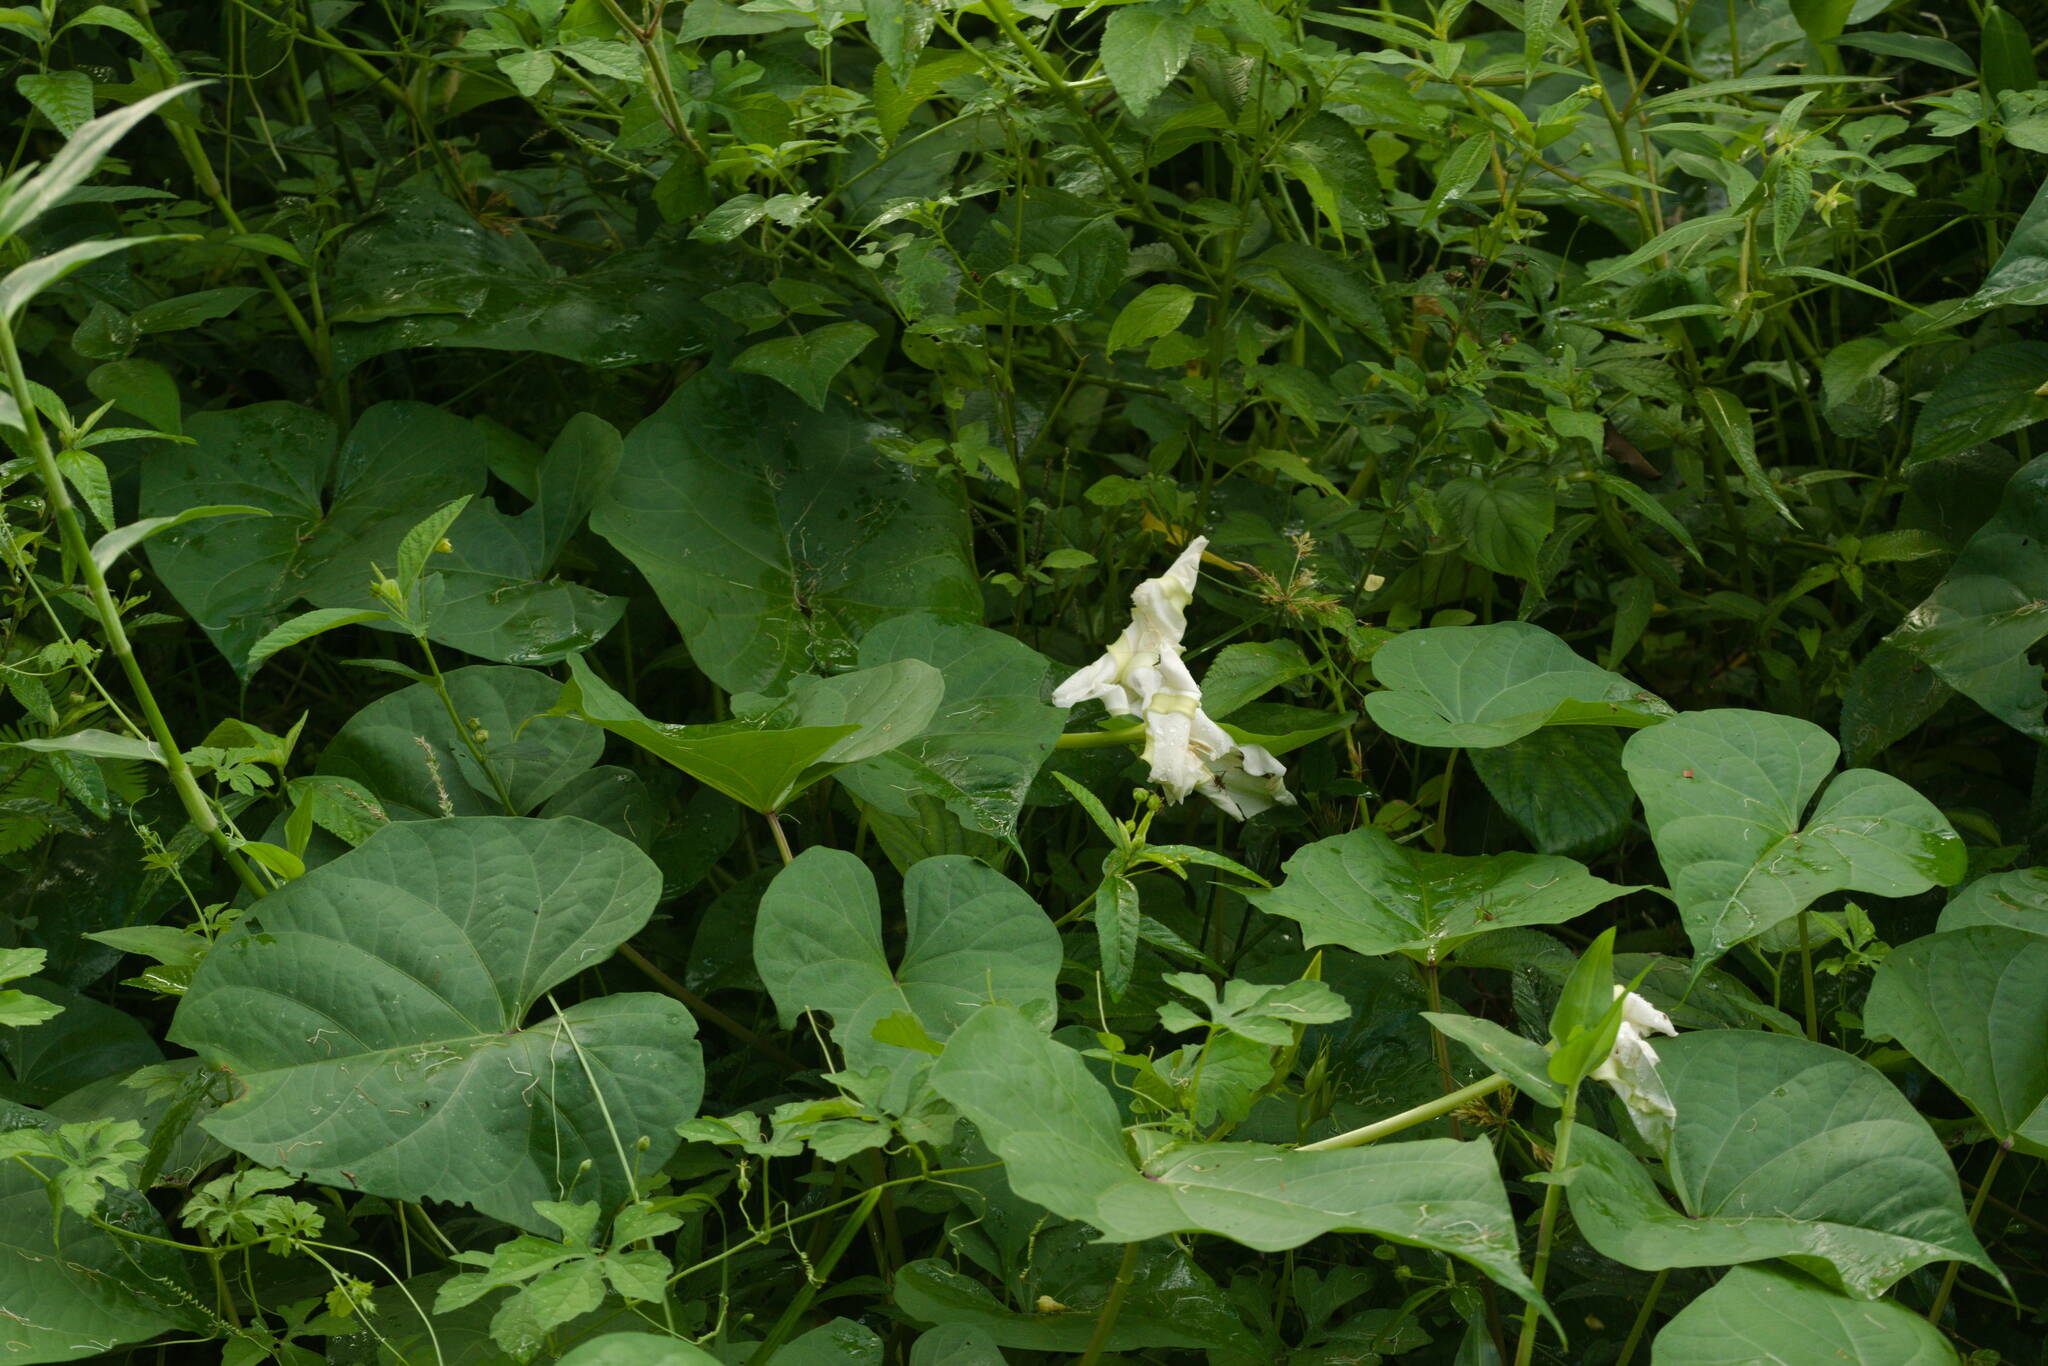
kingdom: Plantae
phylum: Tracheophyta
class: Magnoliopsida
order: Solanales
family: Convolvulaceae
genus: Ipomoea
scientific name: Ipomoea alba
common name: Moonflower
